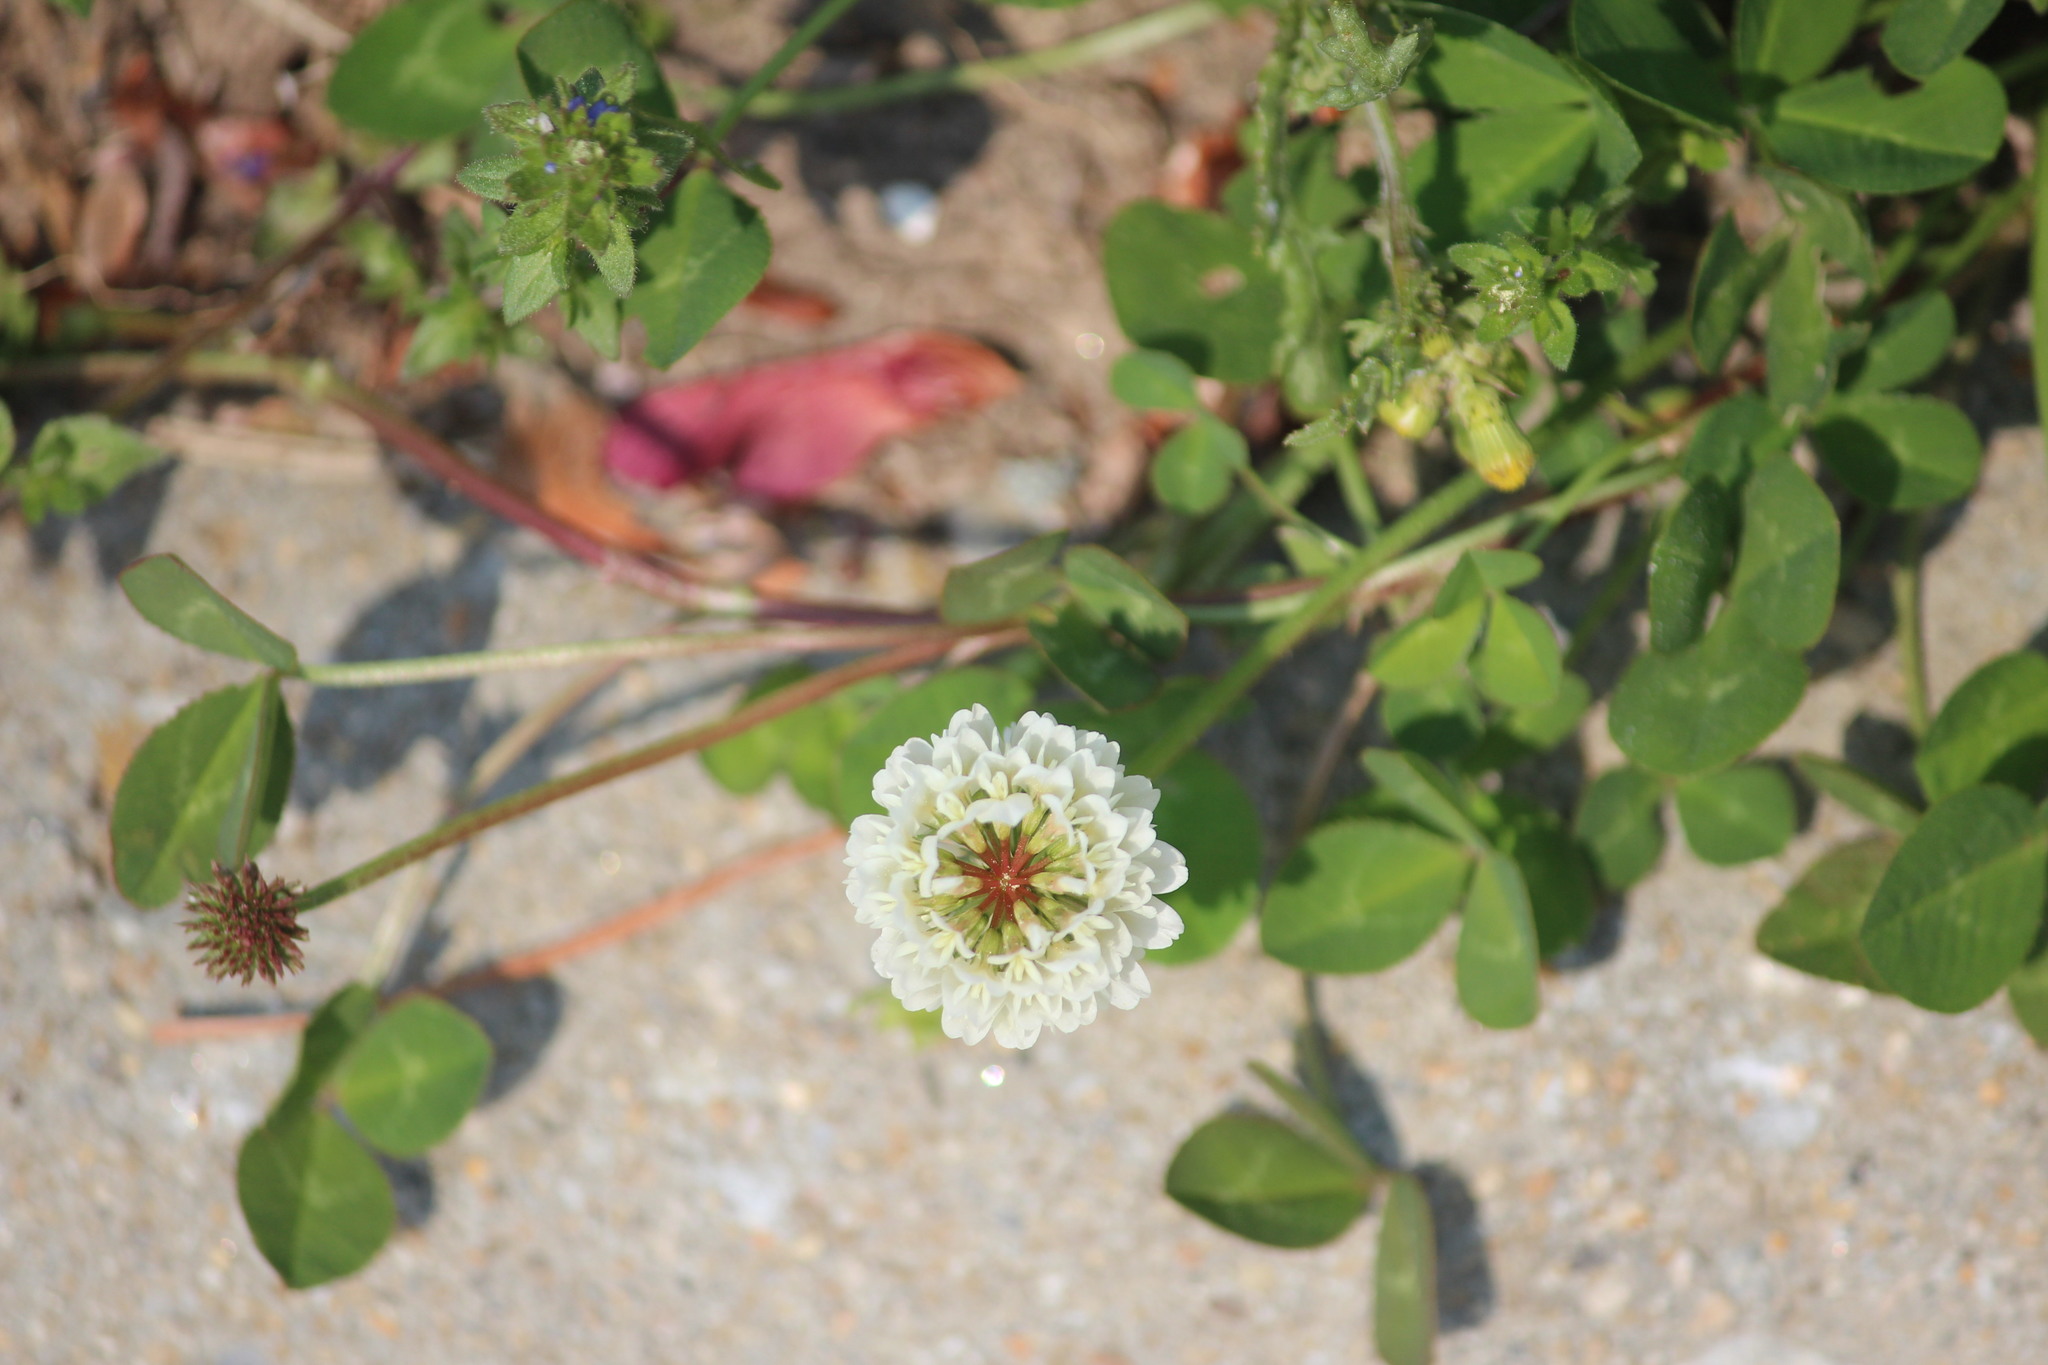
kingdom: Plantae
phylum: Tracheophyta
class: Magnoliopsida
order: Fabales
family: Fabaceae
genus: Trifolium
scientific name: Trifolium repens
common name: White clover
